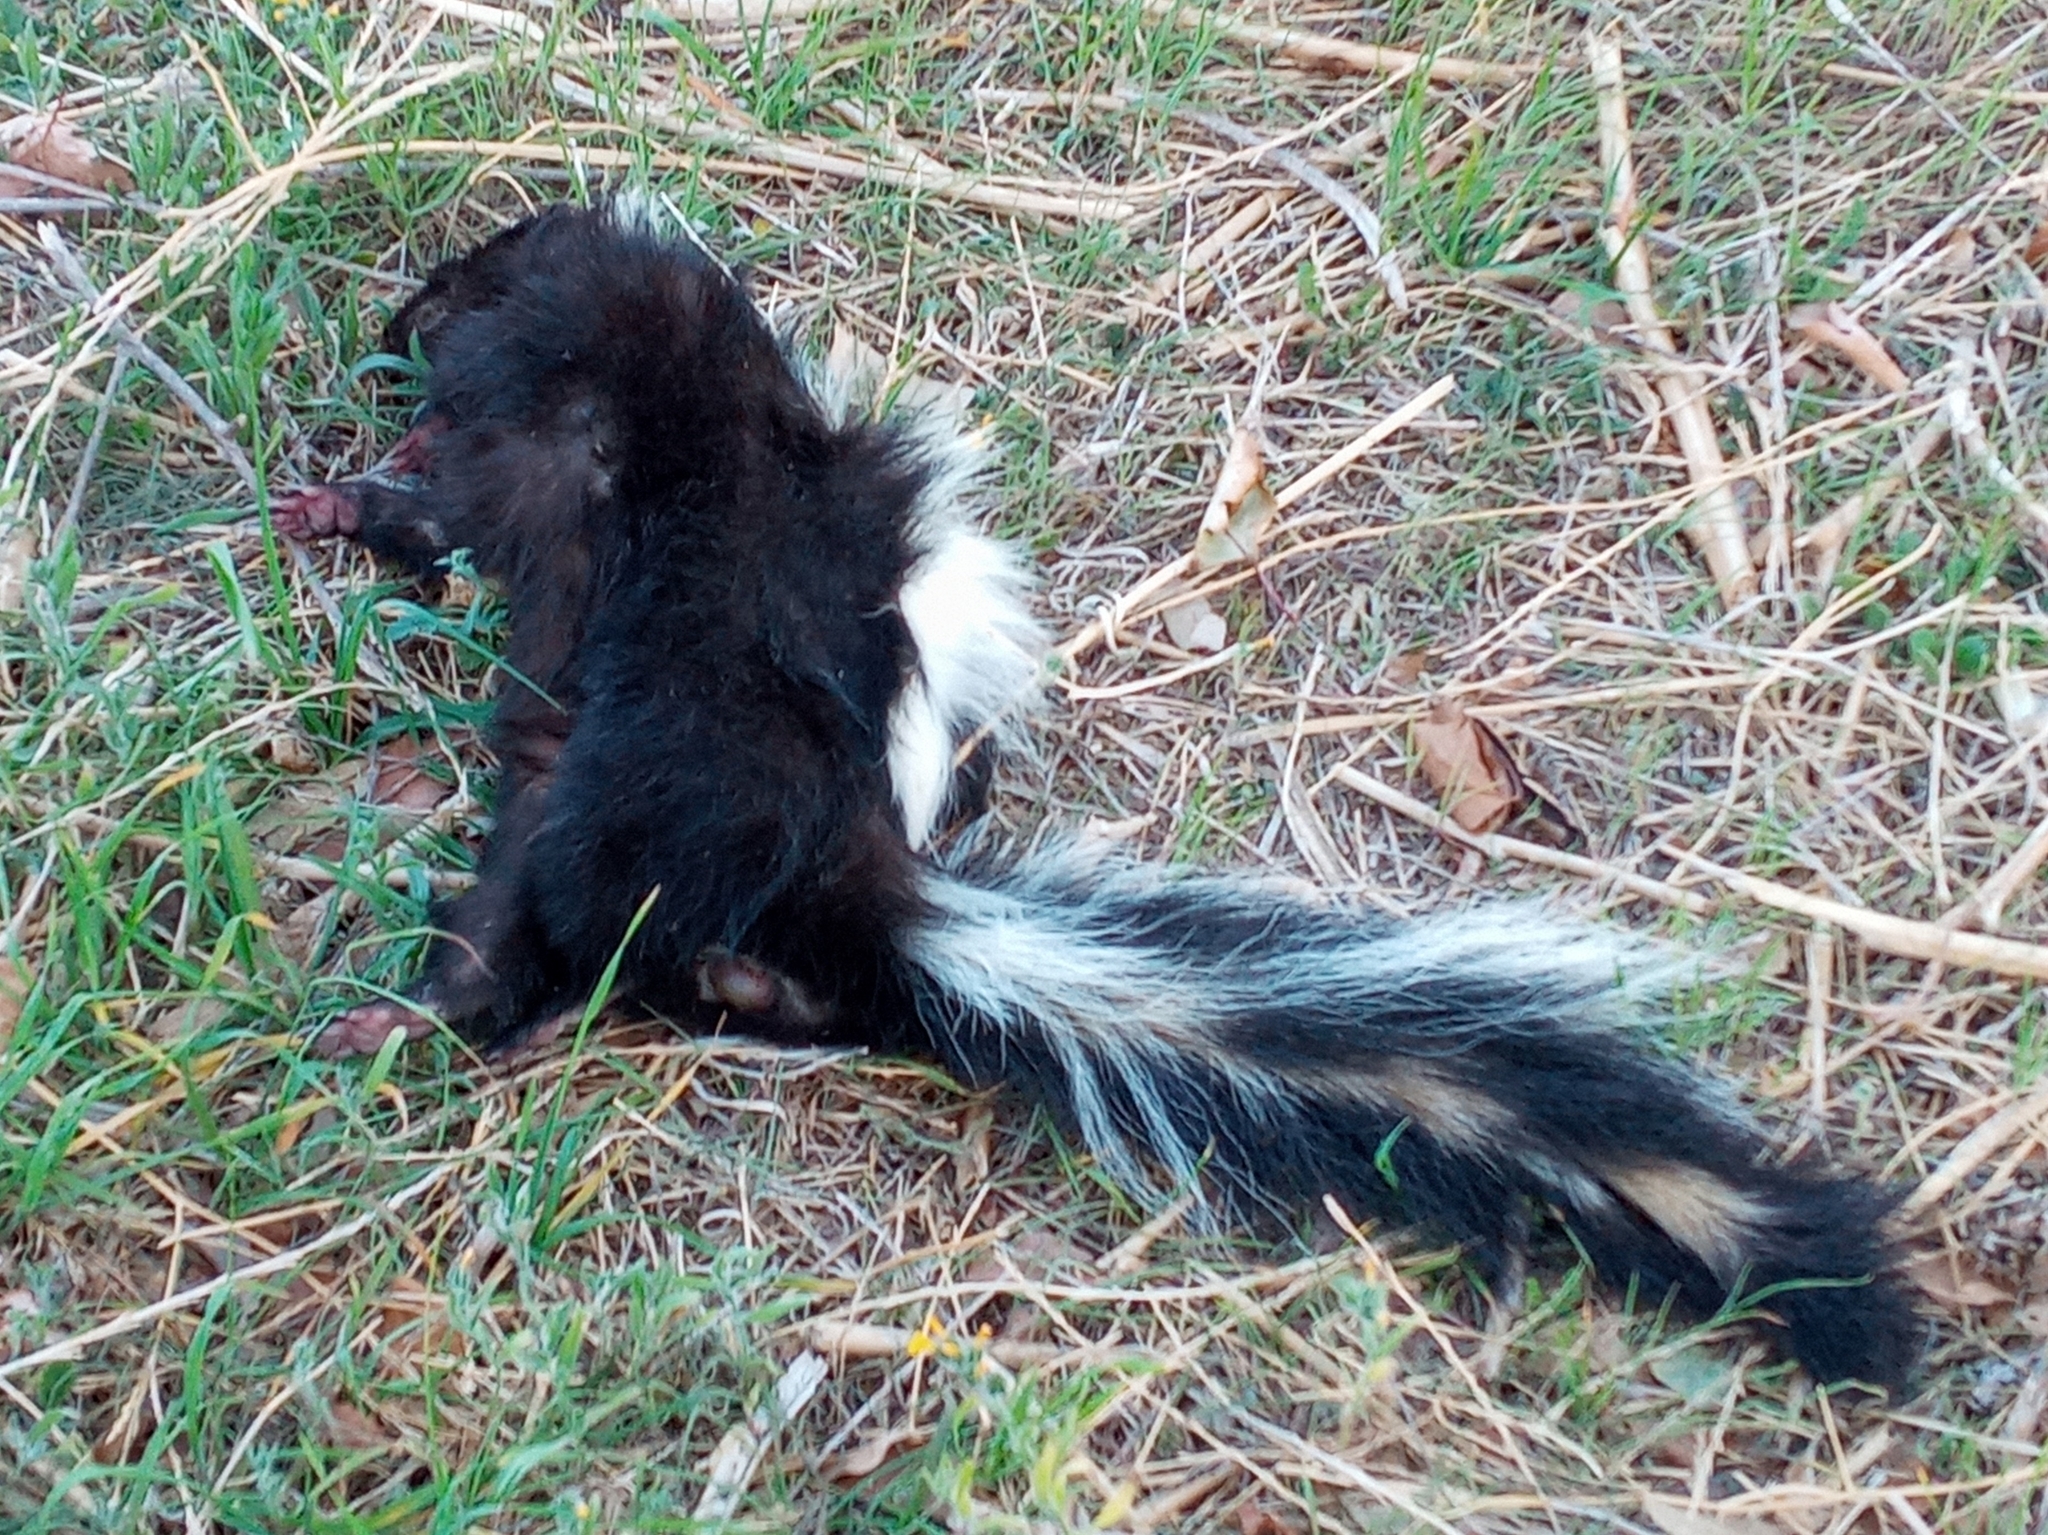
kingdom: Animalia
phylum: Chordata
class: Mammalia
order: Carnivora
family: Mephitidae
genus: Mephitis
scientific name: Mephitis mephitis
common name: Striped skunk
